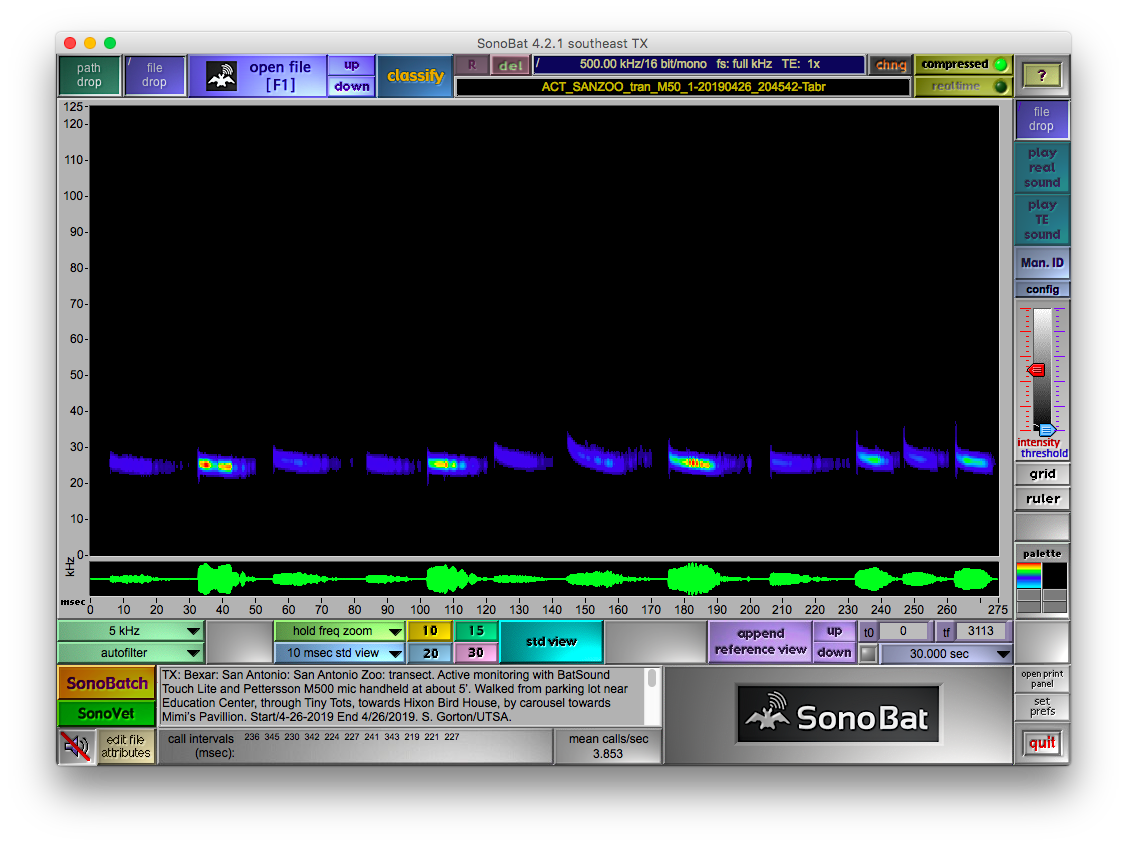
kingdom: Animalia
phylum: Chordata
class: Mammalia
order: Chiroptera
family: Molossidae
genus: Tadarida
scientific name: Tadarida brasiliensis
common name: Mexican free-tailed bat
